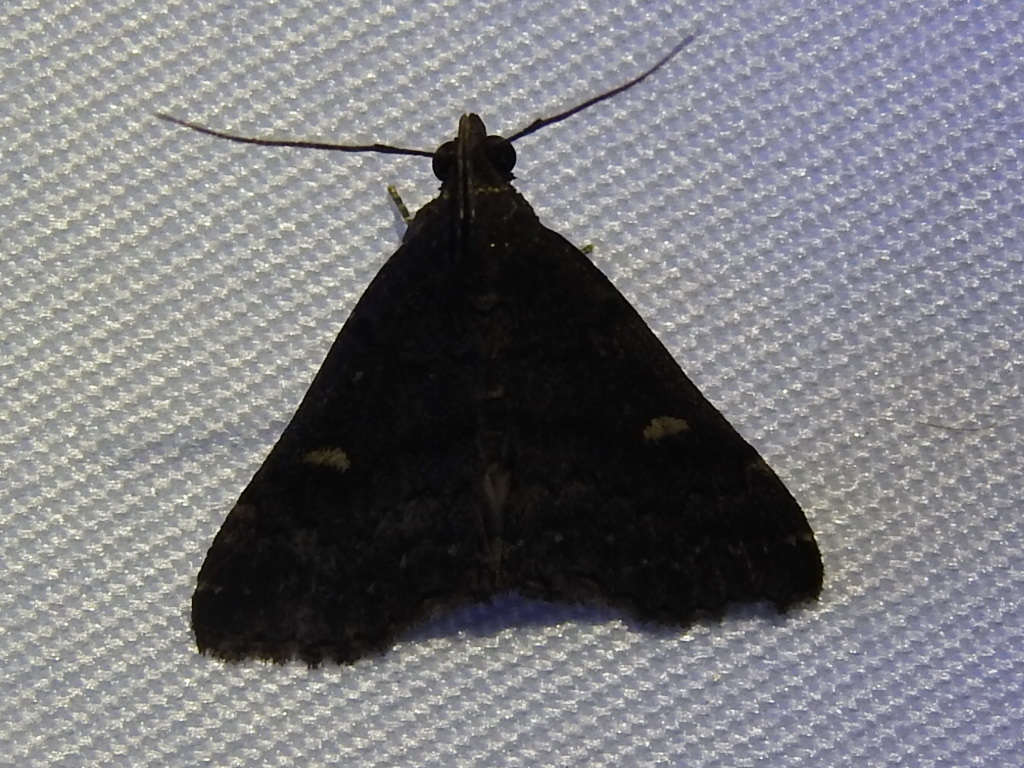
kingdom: Animalia
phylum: Arthropoda
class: Insecta
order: Lepidoptera
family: Erebidae
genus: Tetanolita
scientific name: Tetanolita mynesalis
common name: Smoky tetanolita moth
